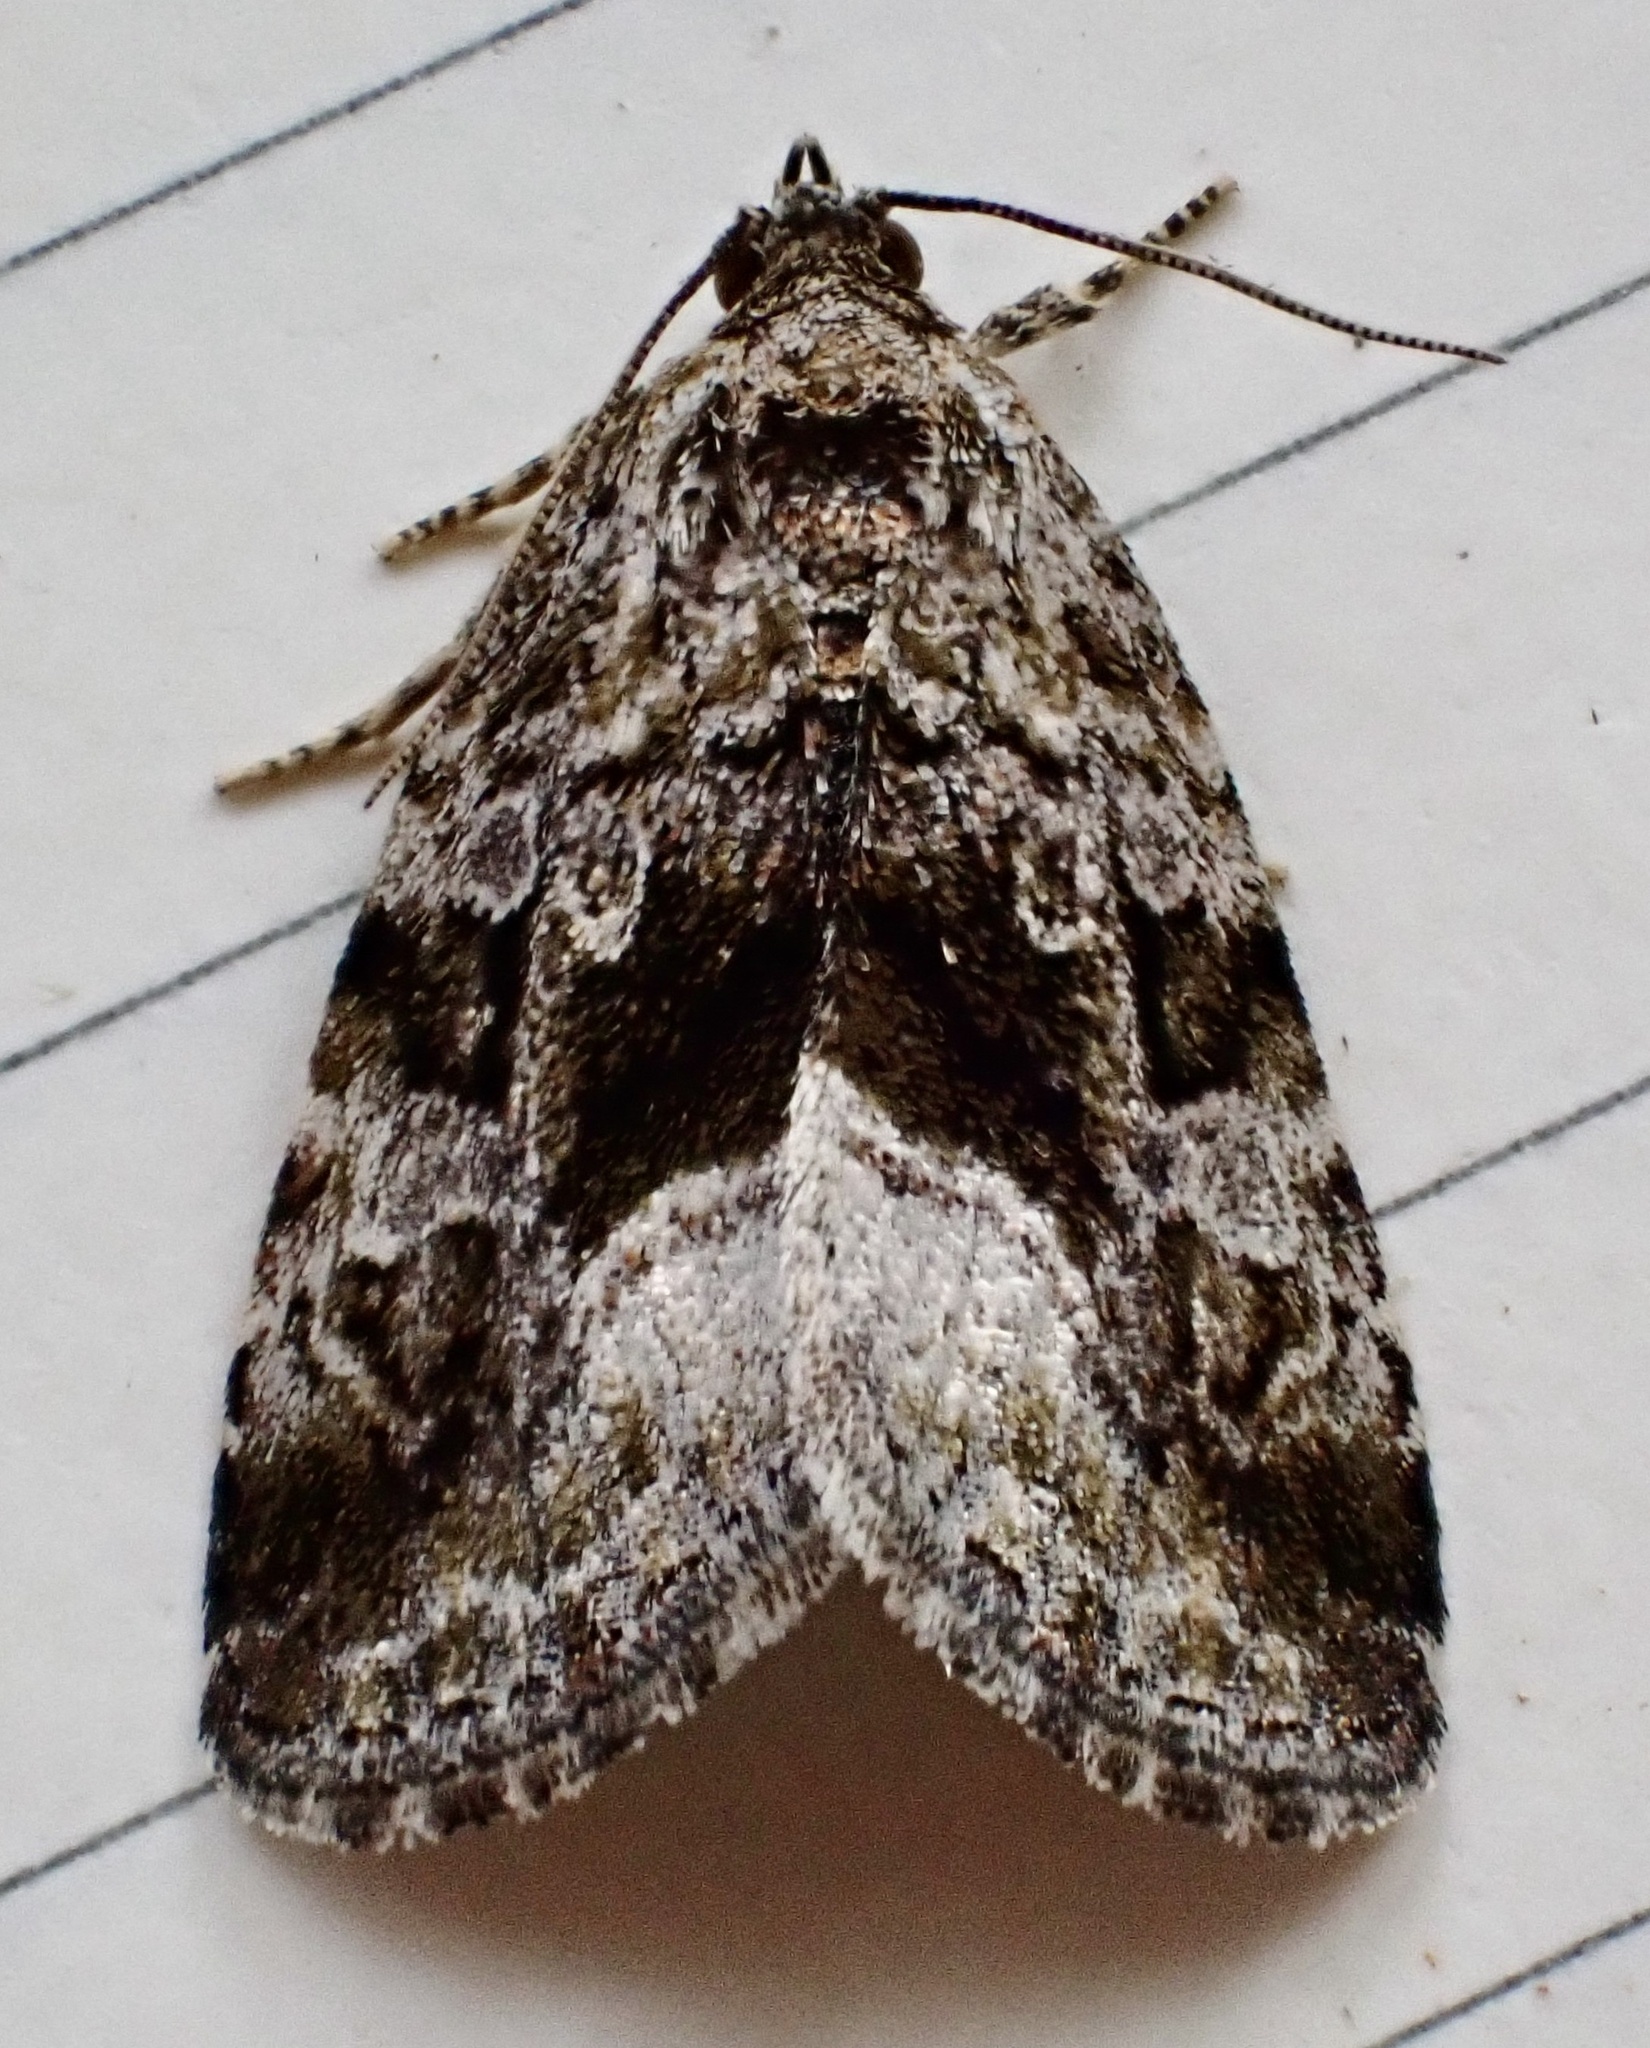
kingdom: Animalia
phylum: Arthropoda
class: Insecta
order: Lepidoptera
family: Noctuidae
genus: Protodeltote
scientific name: Protodeltote muscosula
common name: Large mossy glyph
